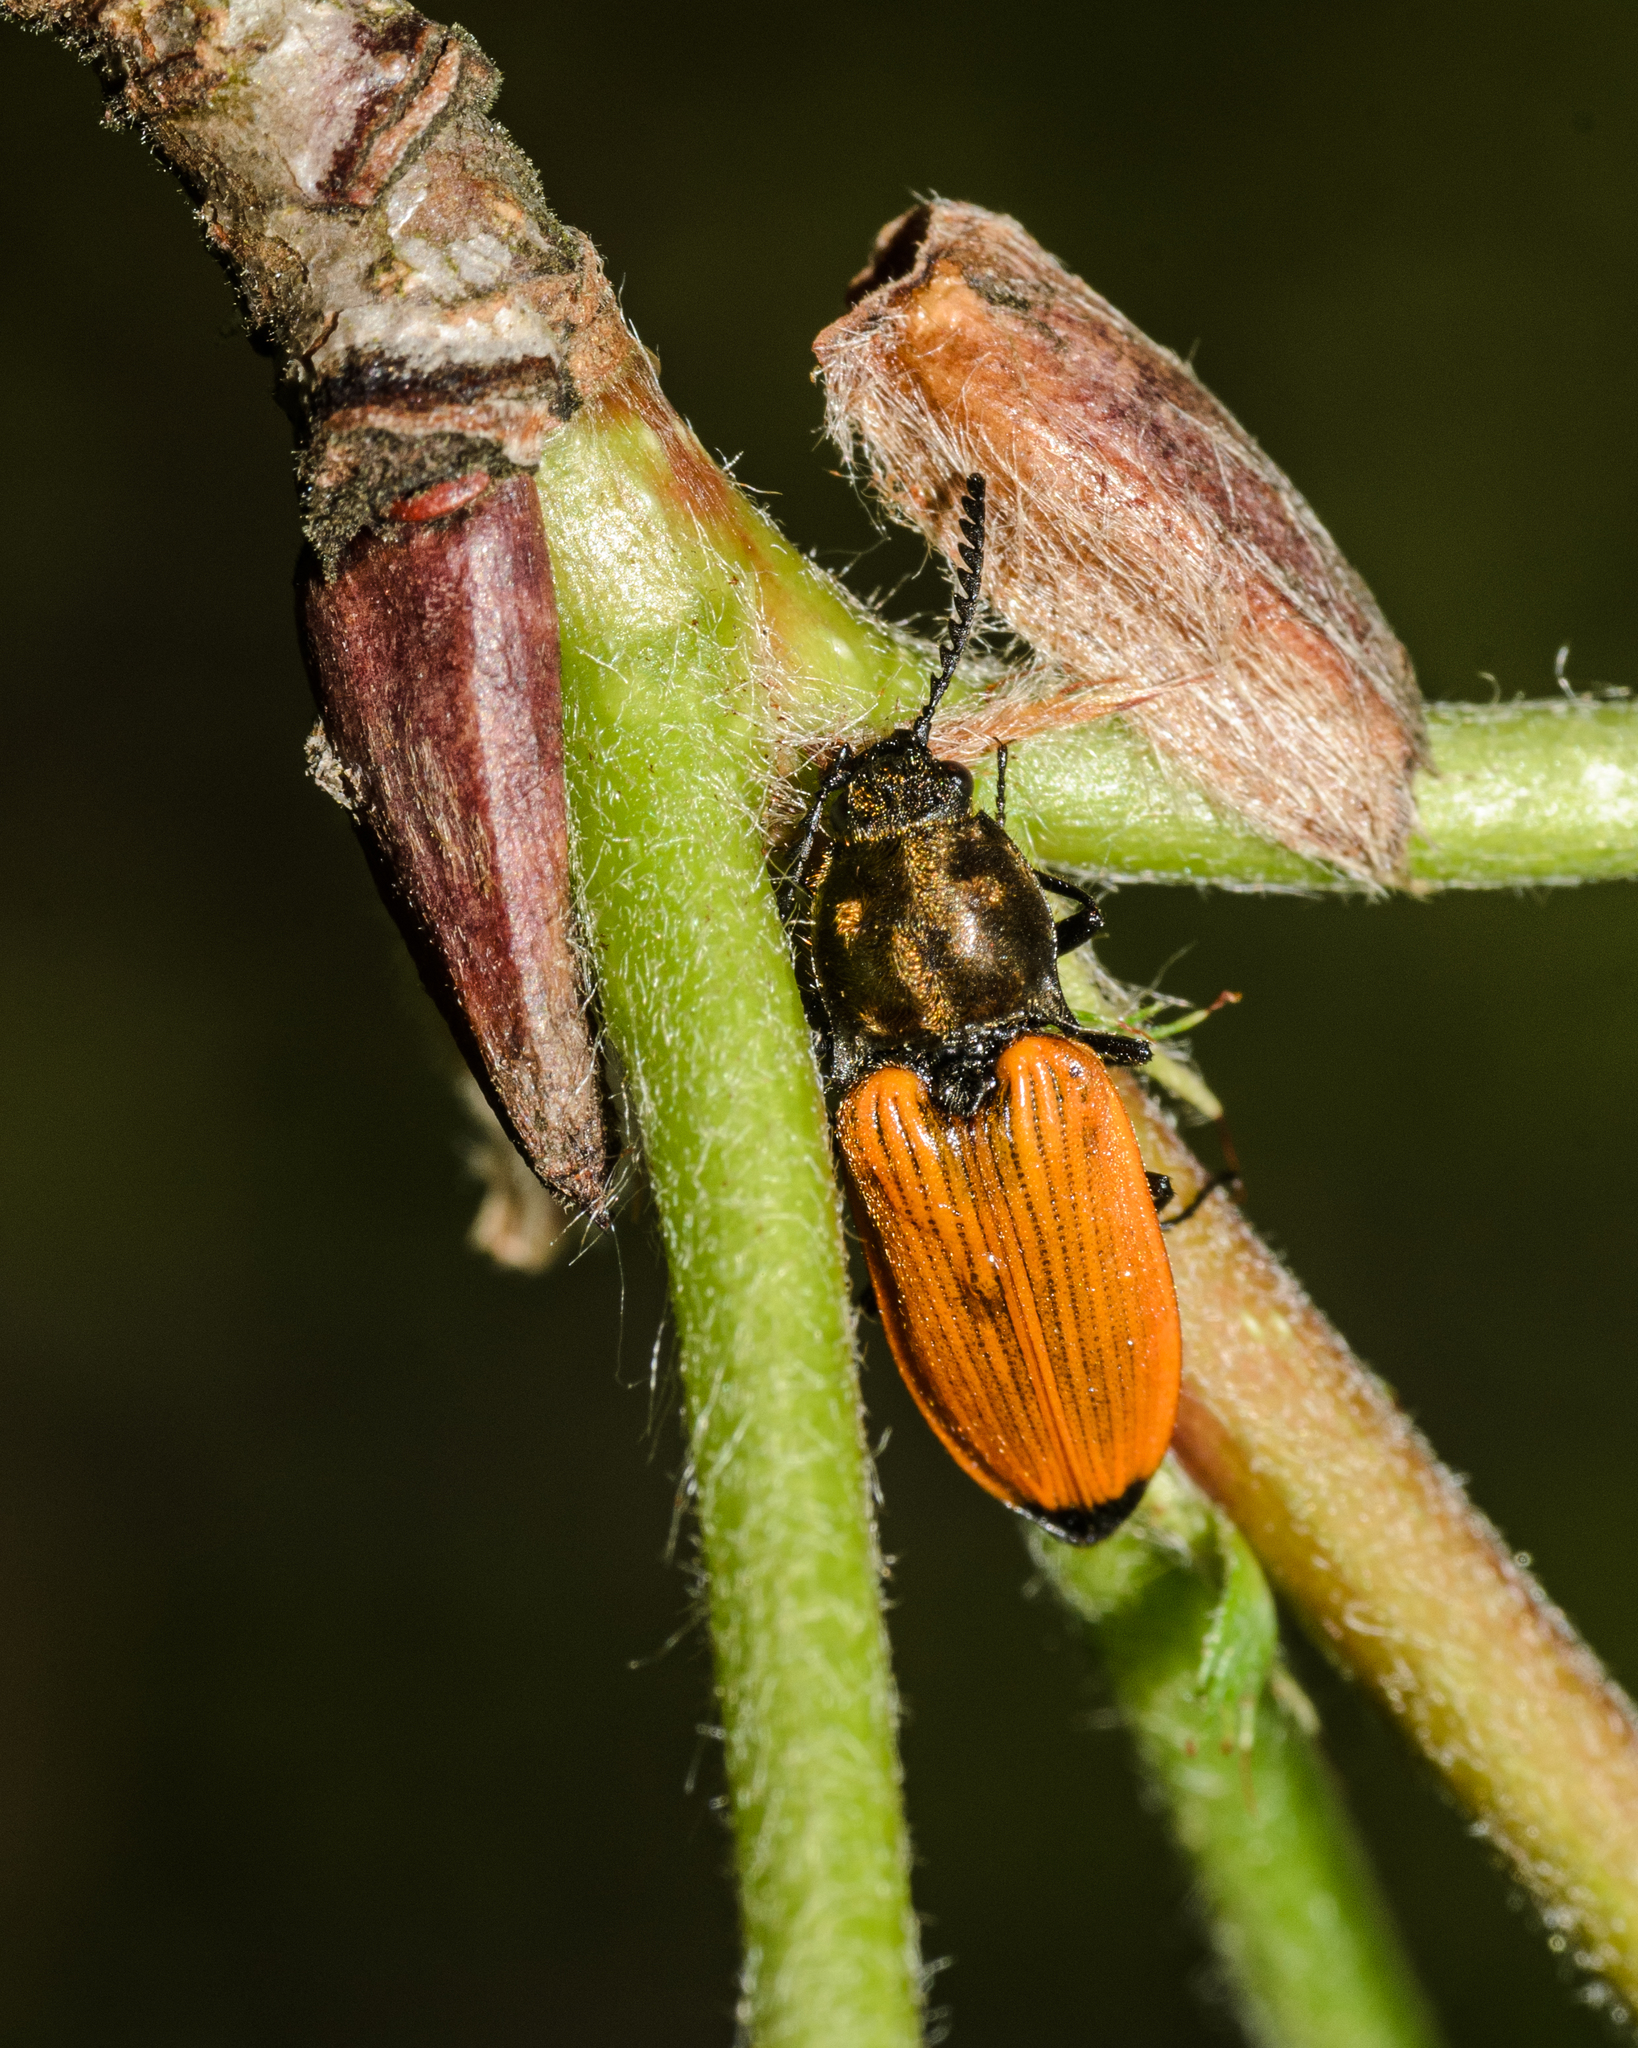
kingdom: Animalia
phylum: Arthropoda
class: Insecta
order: Coleoptera
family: Elateridae
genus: Anostirus
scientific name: Anostirus castaneus
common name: Chestnut coloured click beetle
